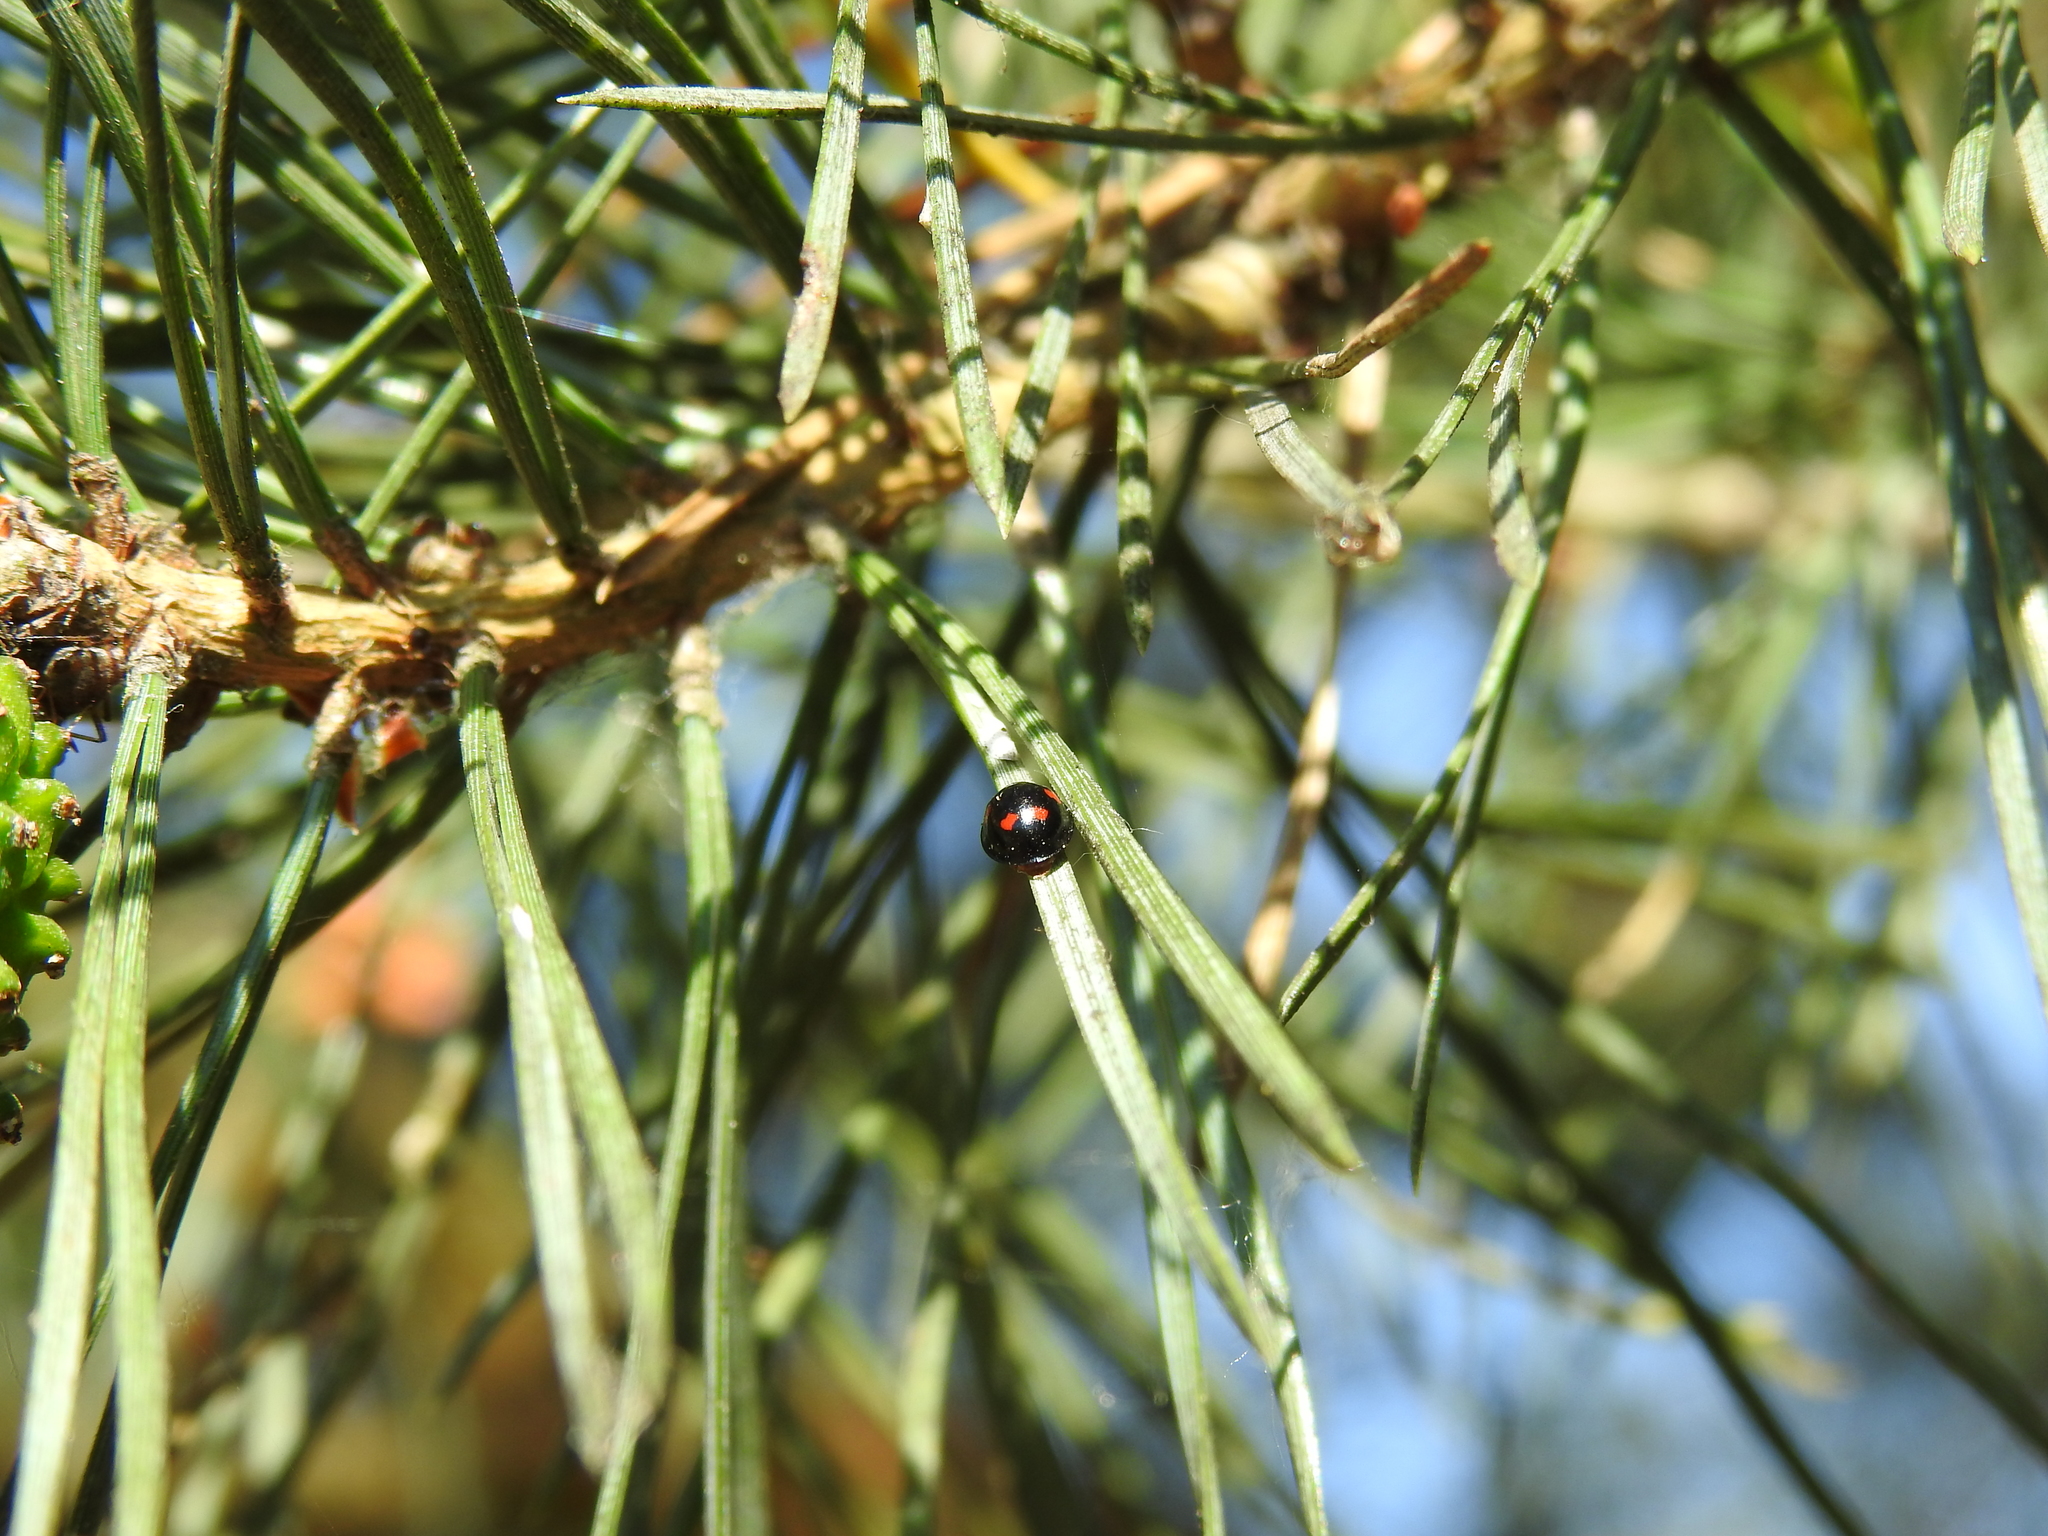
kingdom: Animalia
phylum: Arthropoda
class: Insecta
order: Coleoptera
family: Coccinellidae
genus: Brumus
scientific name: Brumus quadripustulatus
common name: Ladybird beetle
